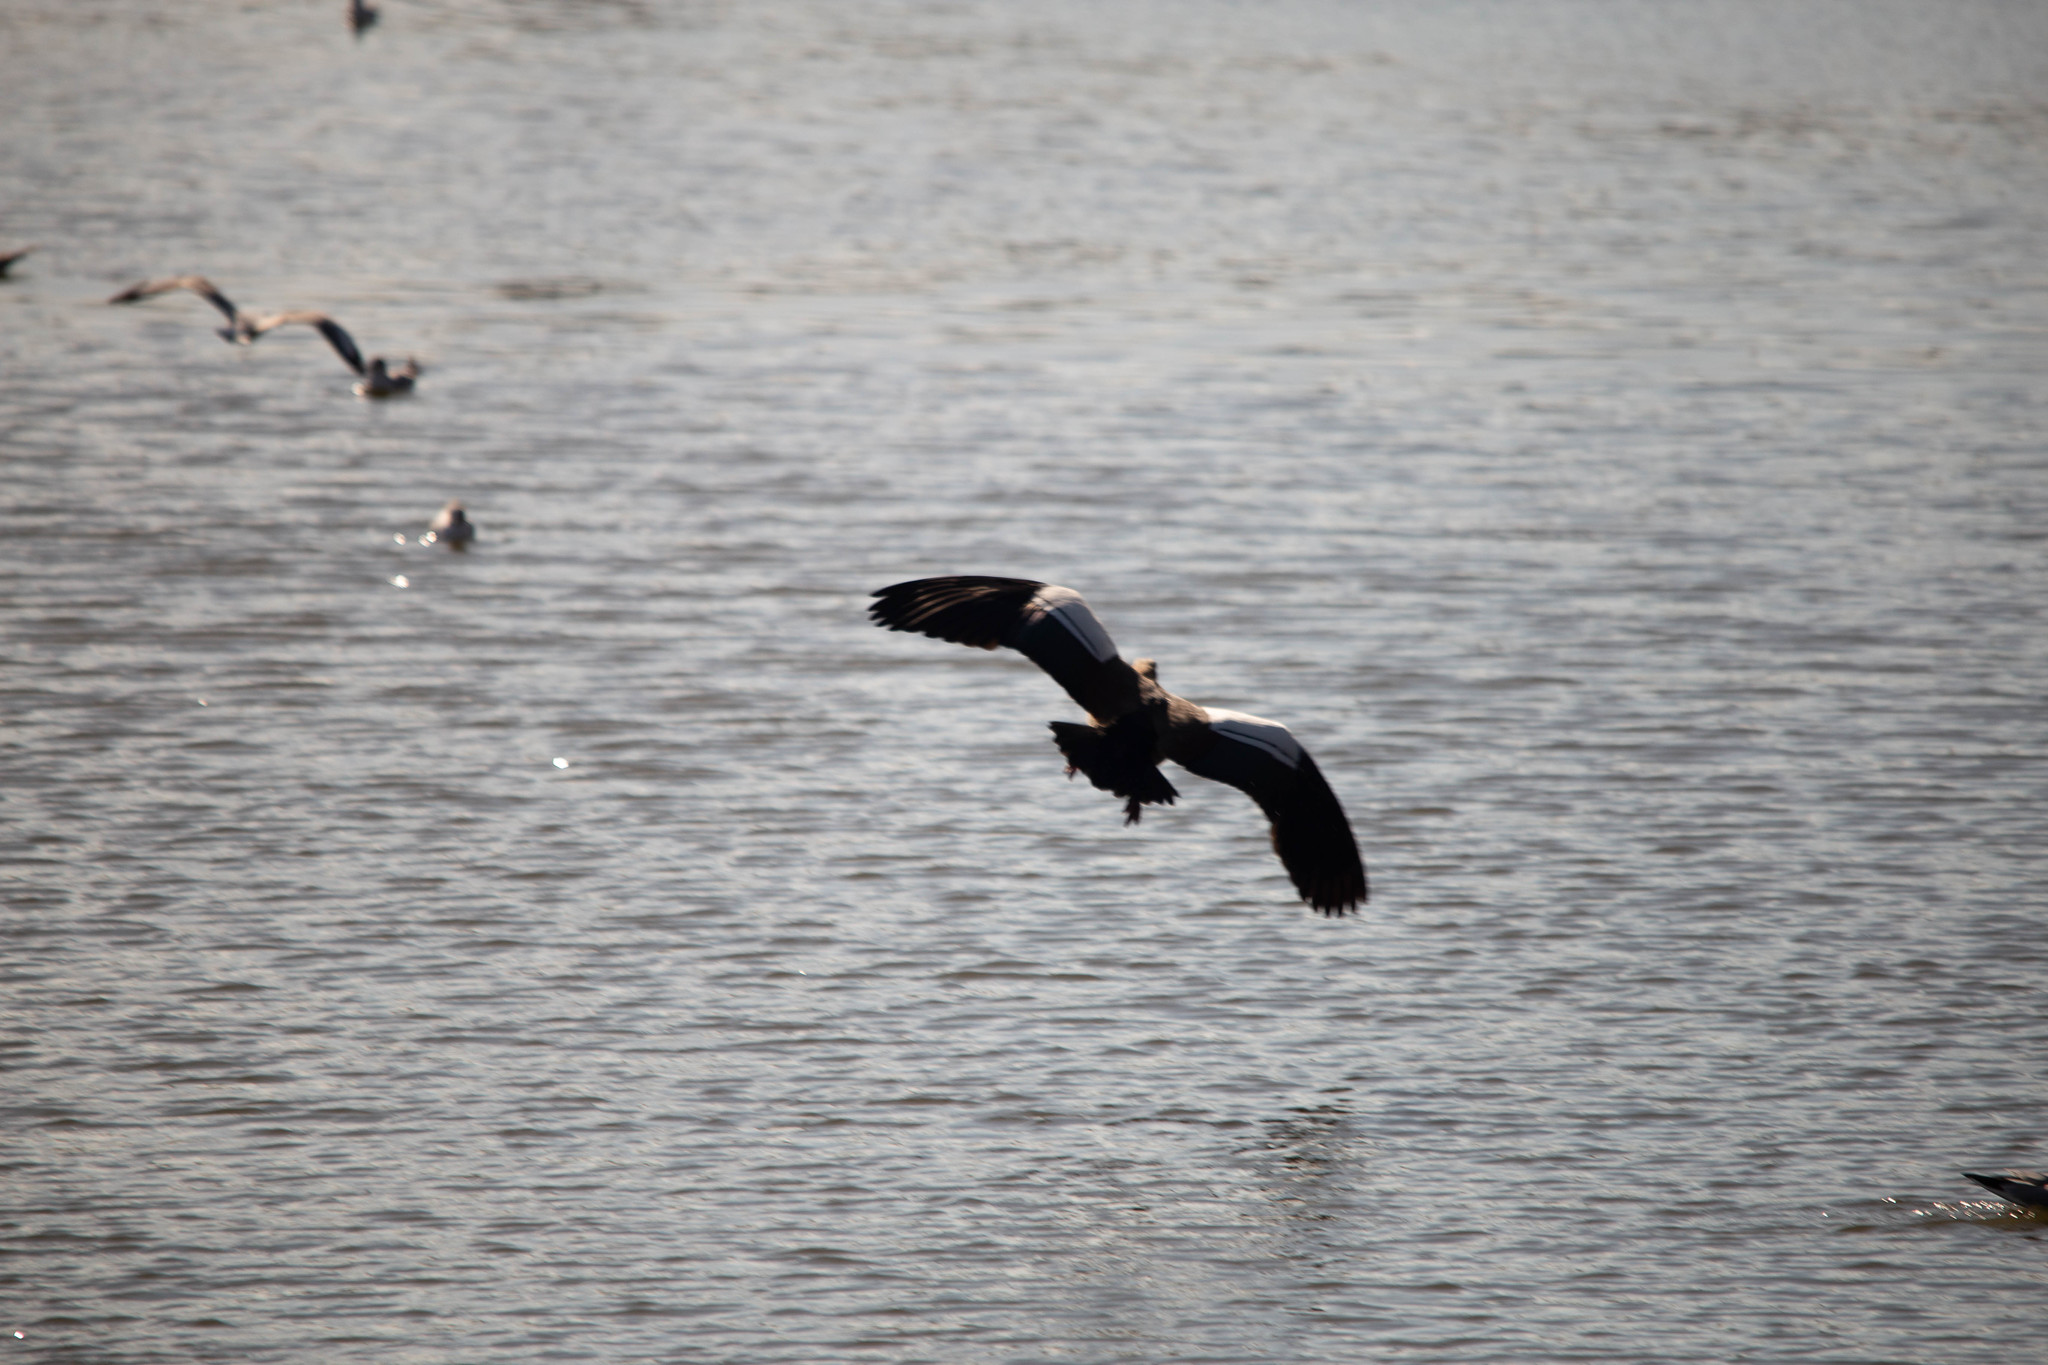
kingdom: Animalia
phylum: Chordata
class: Aves
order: Anseriformes
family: Anatidae
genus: Alopochen
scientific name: Alopochen aegyptiaca
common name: Egyptian goose
